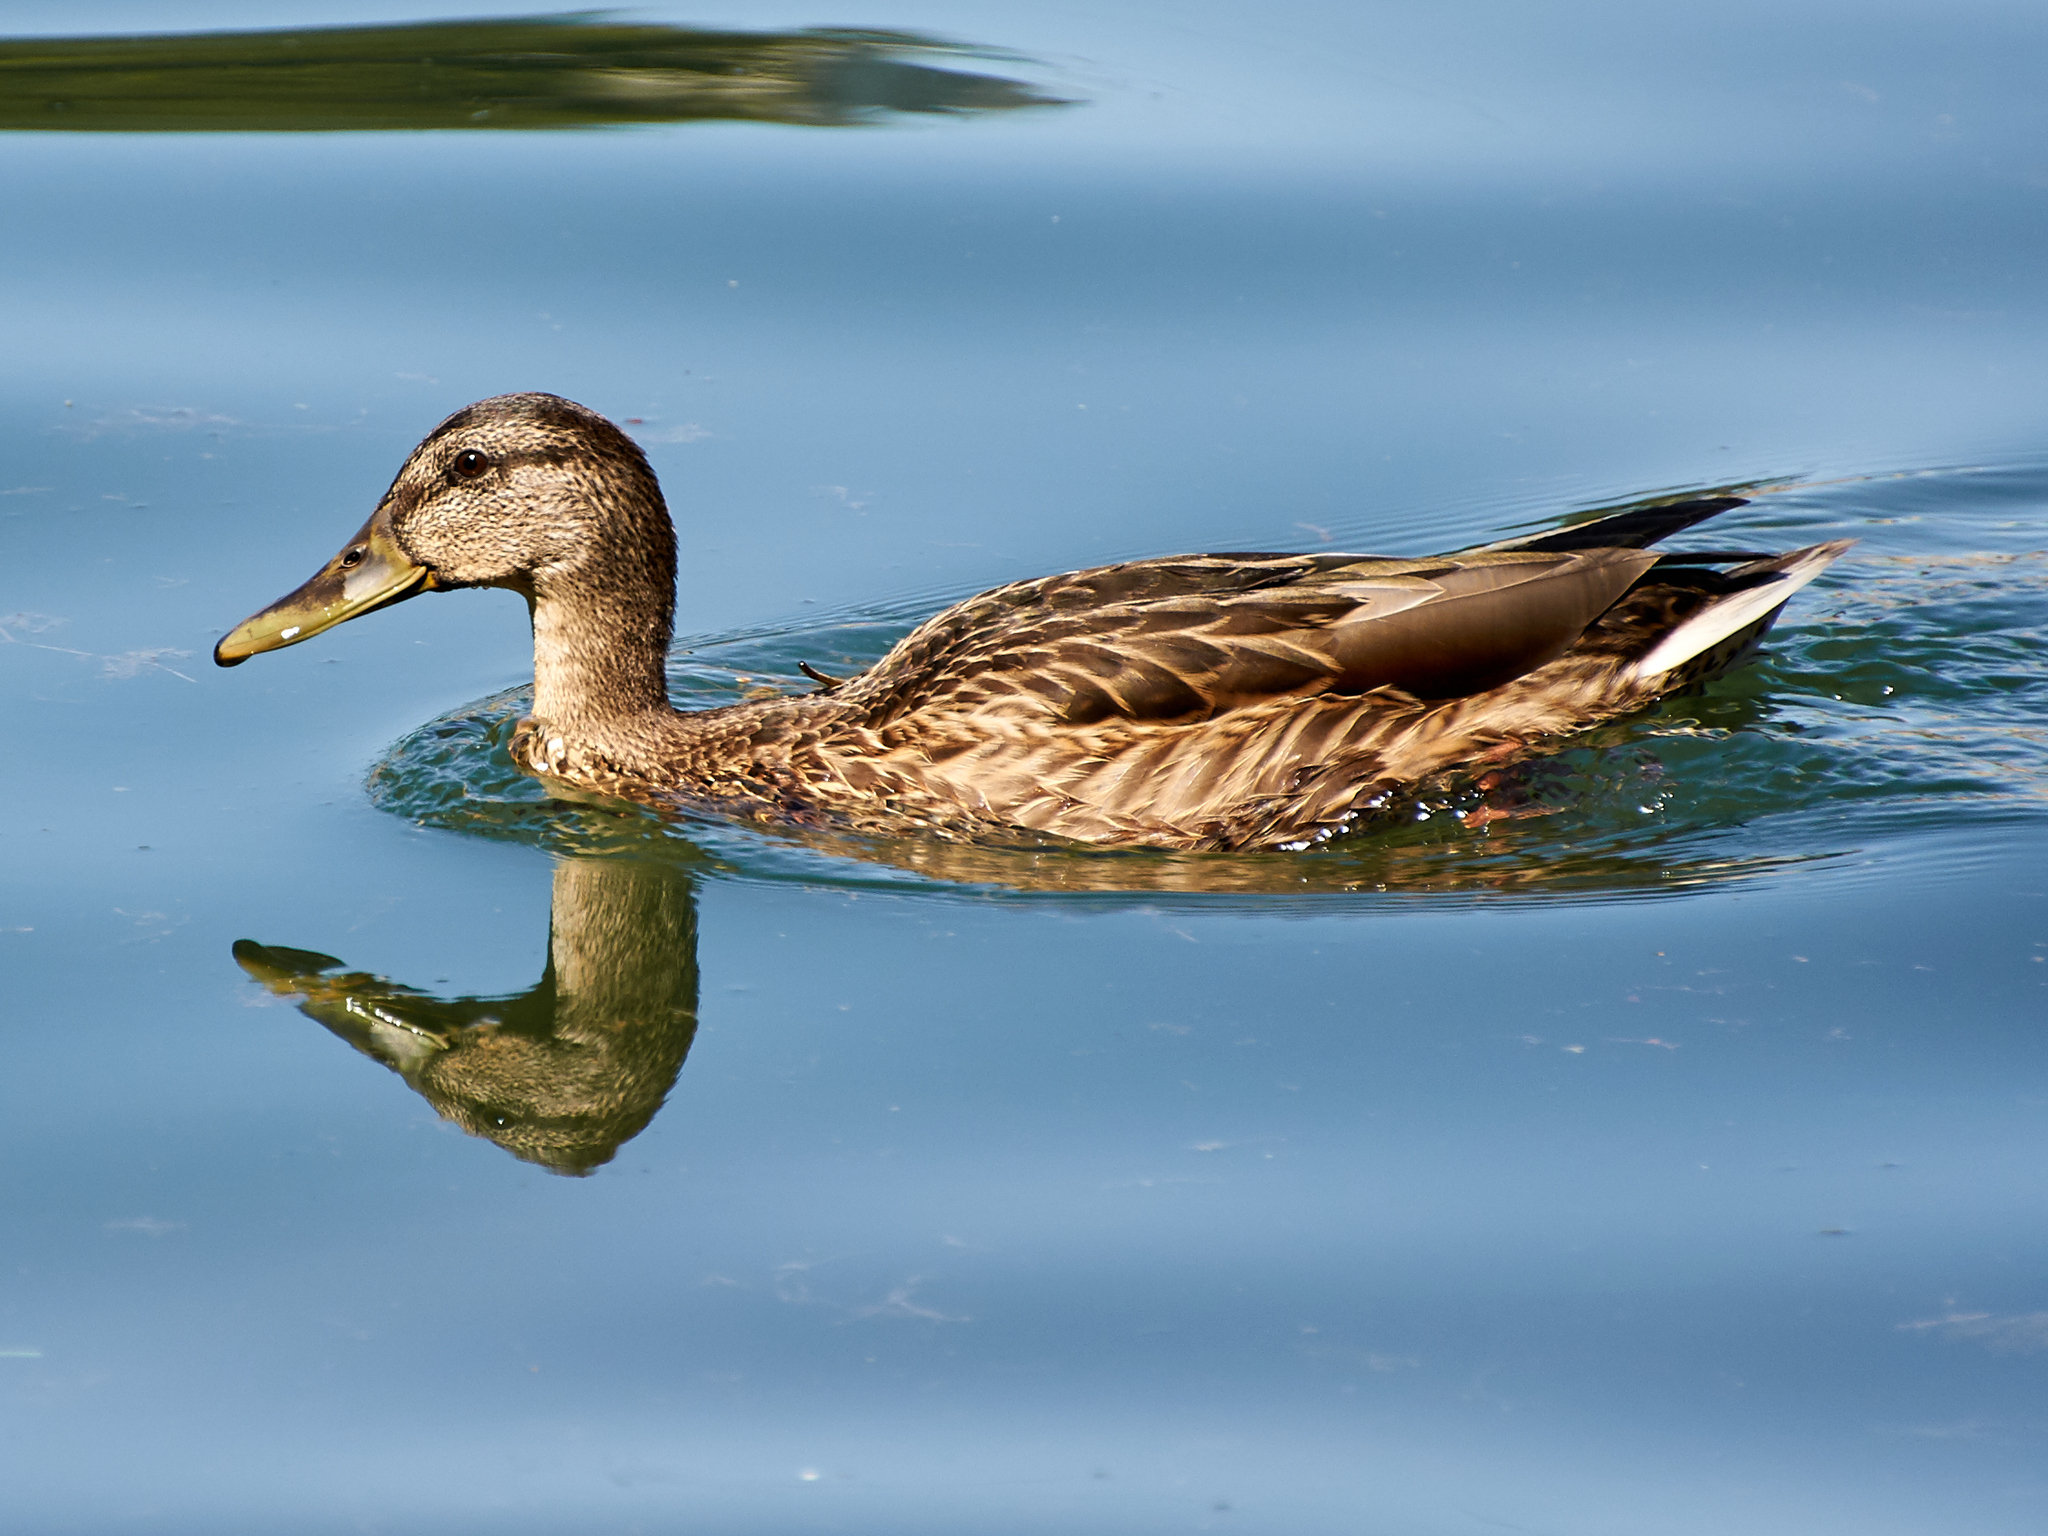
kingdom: Animalia
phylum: Chordata
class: Aves
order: Anseriformes
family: Anatidae
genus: Anas
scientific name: Anas platyrhynchos
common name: Mallard
